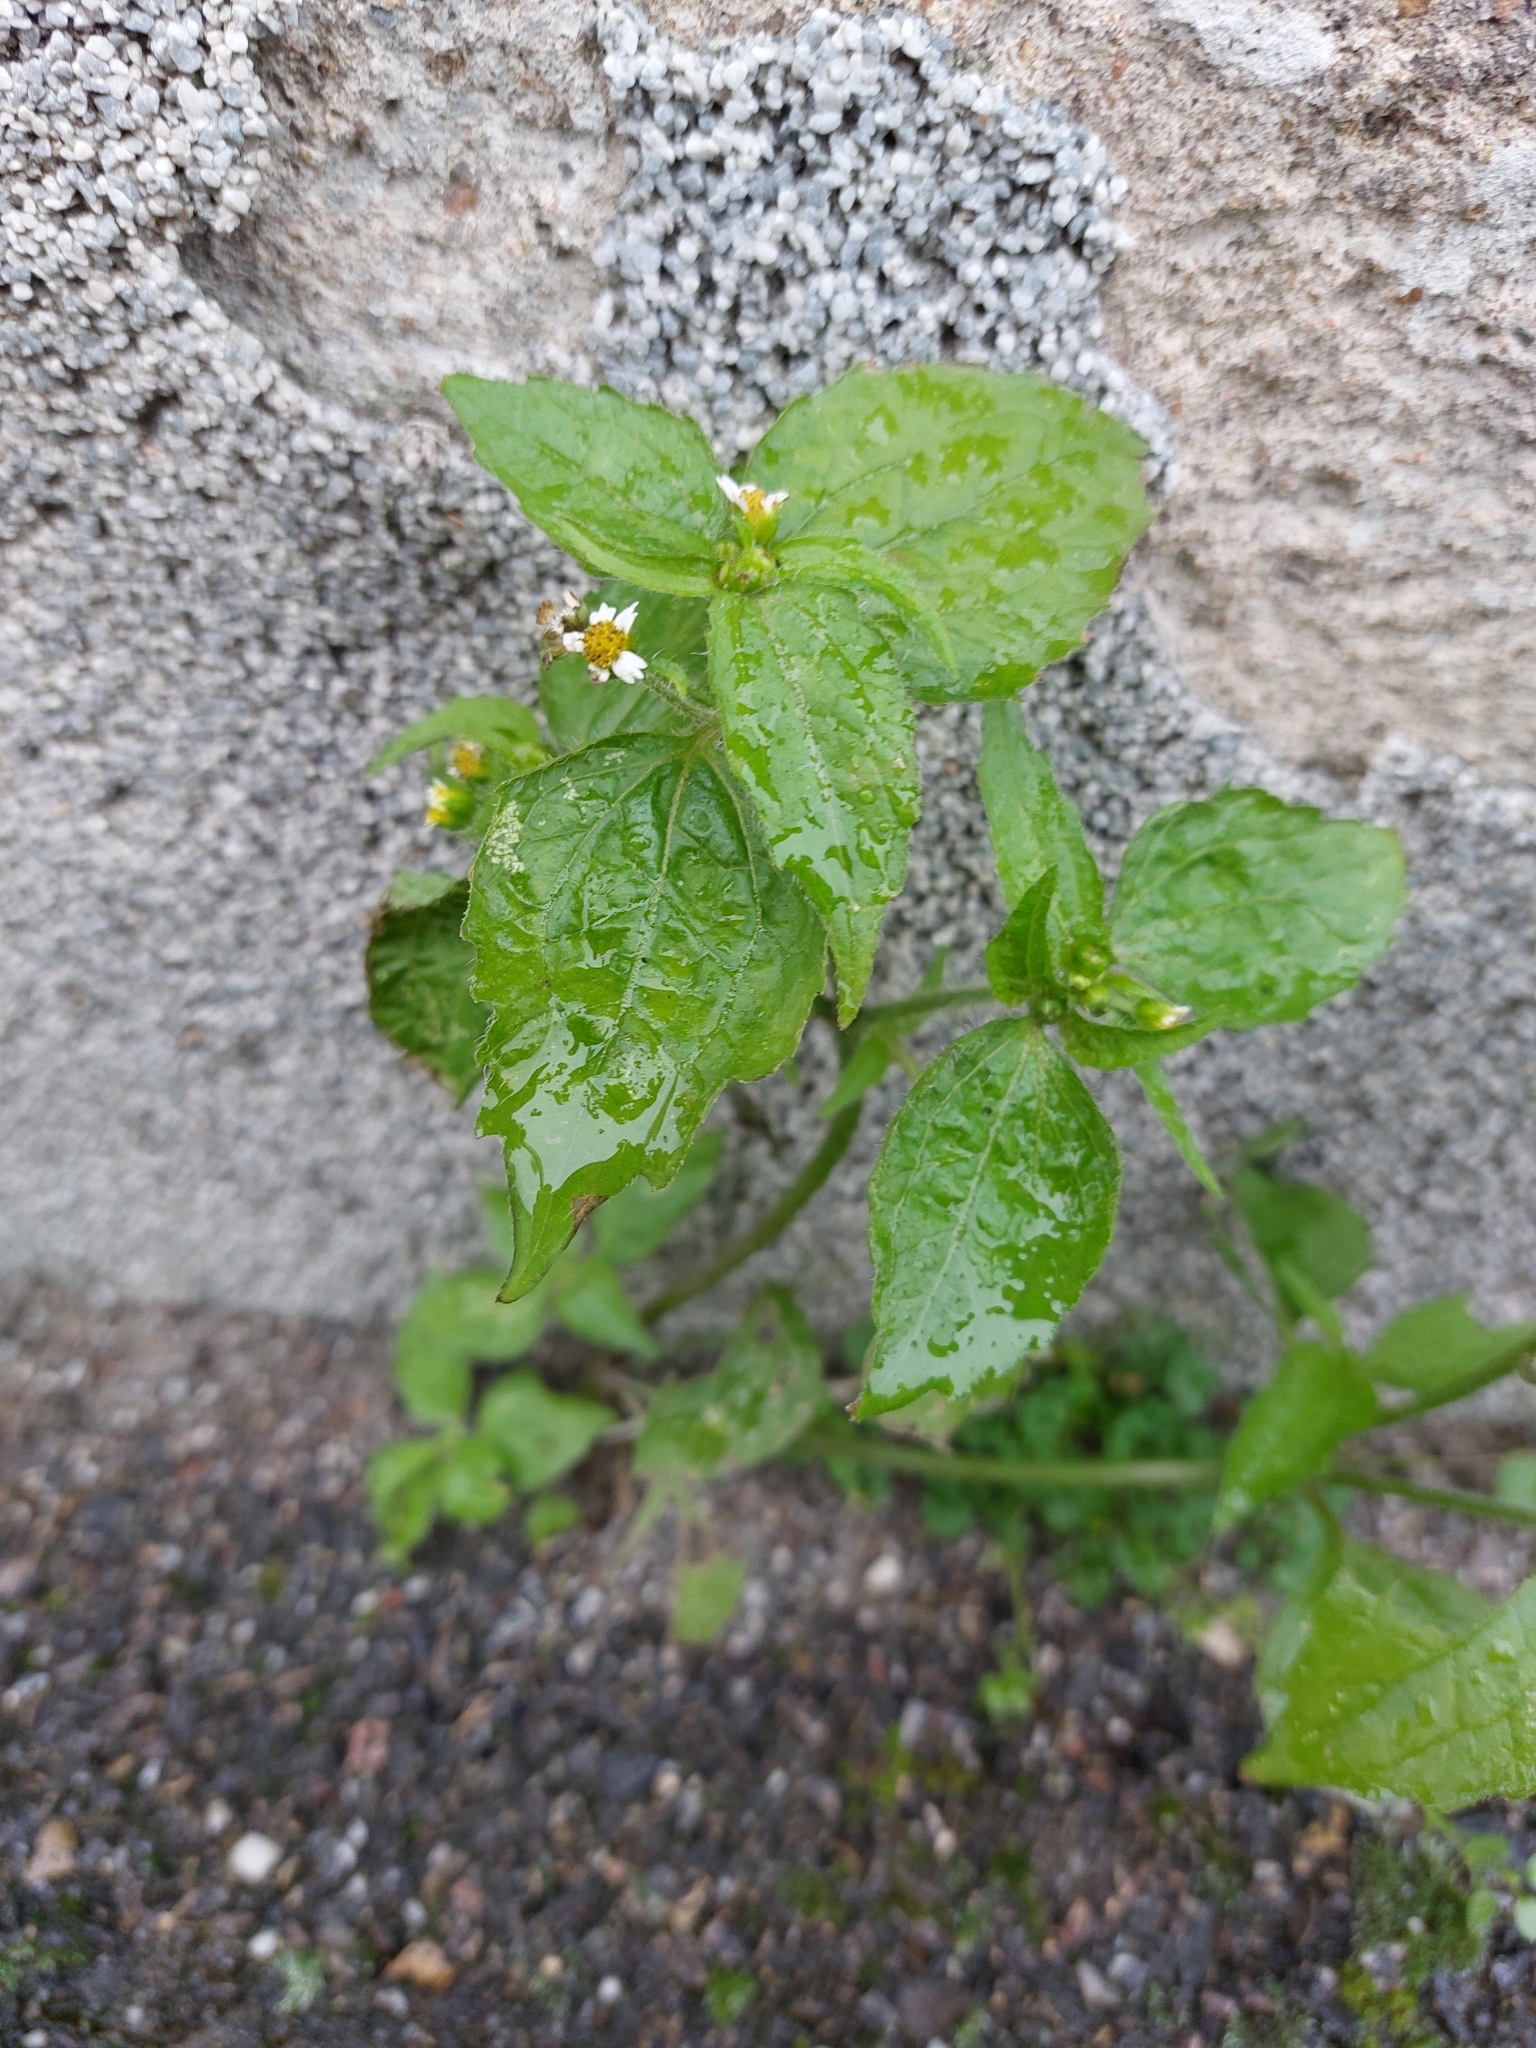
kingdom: Plantae
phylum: Tracheophyta
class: Magnoliopsida
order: Asterales
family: Asteraceae
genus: Galinsoga
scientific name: Galinsoga quadriradiata
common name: Shaggy soldier
